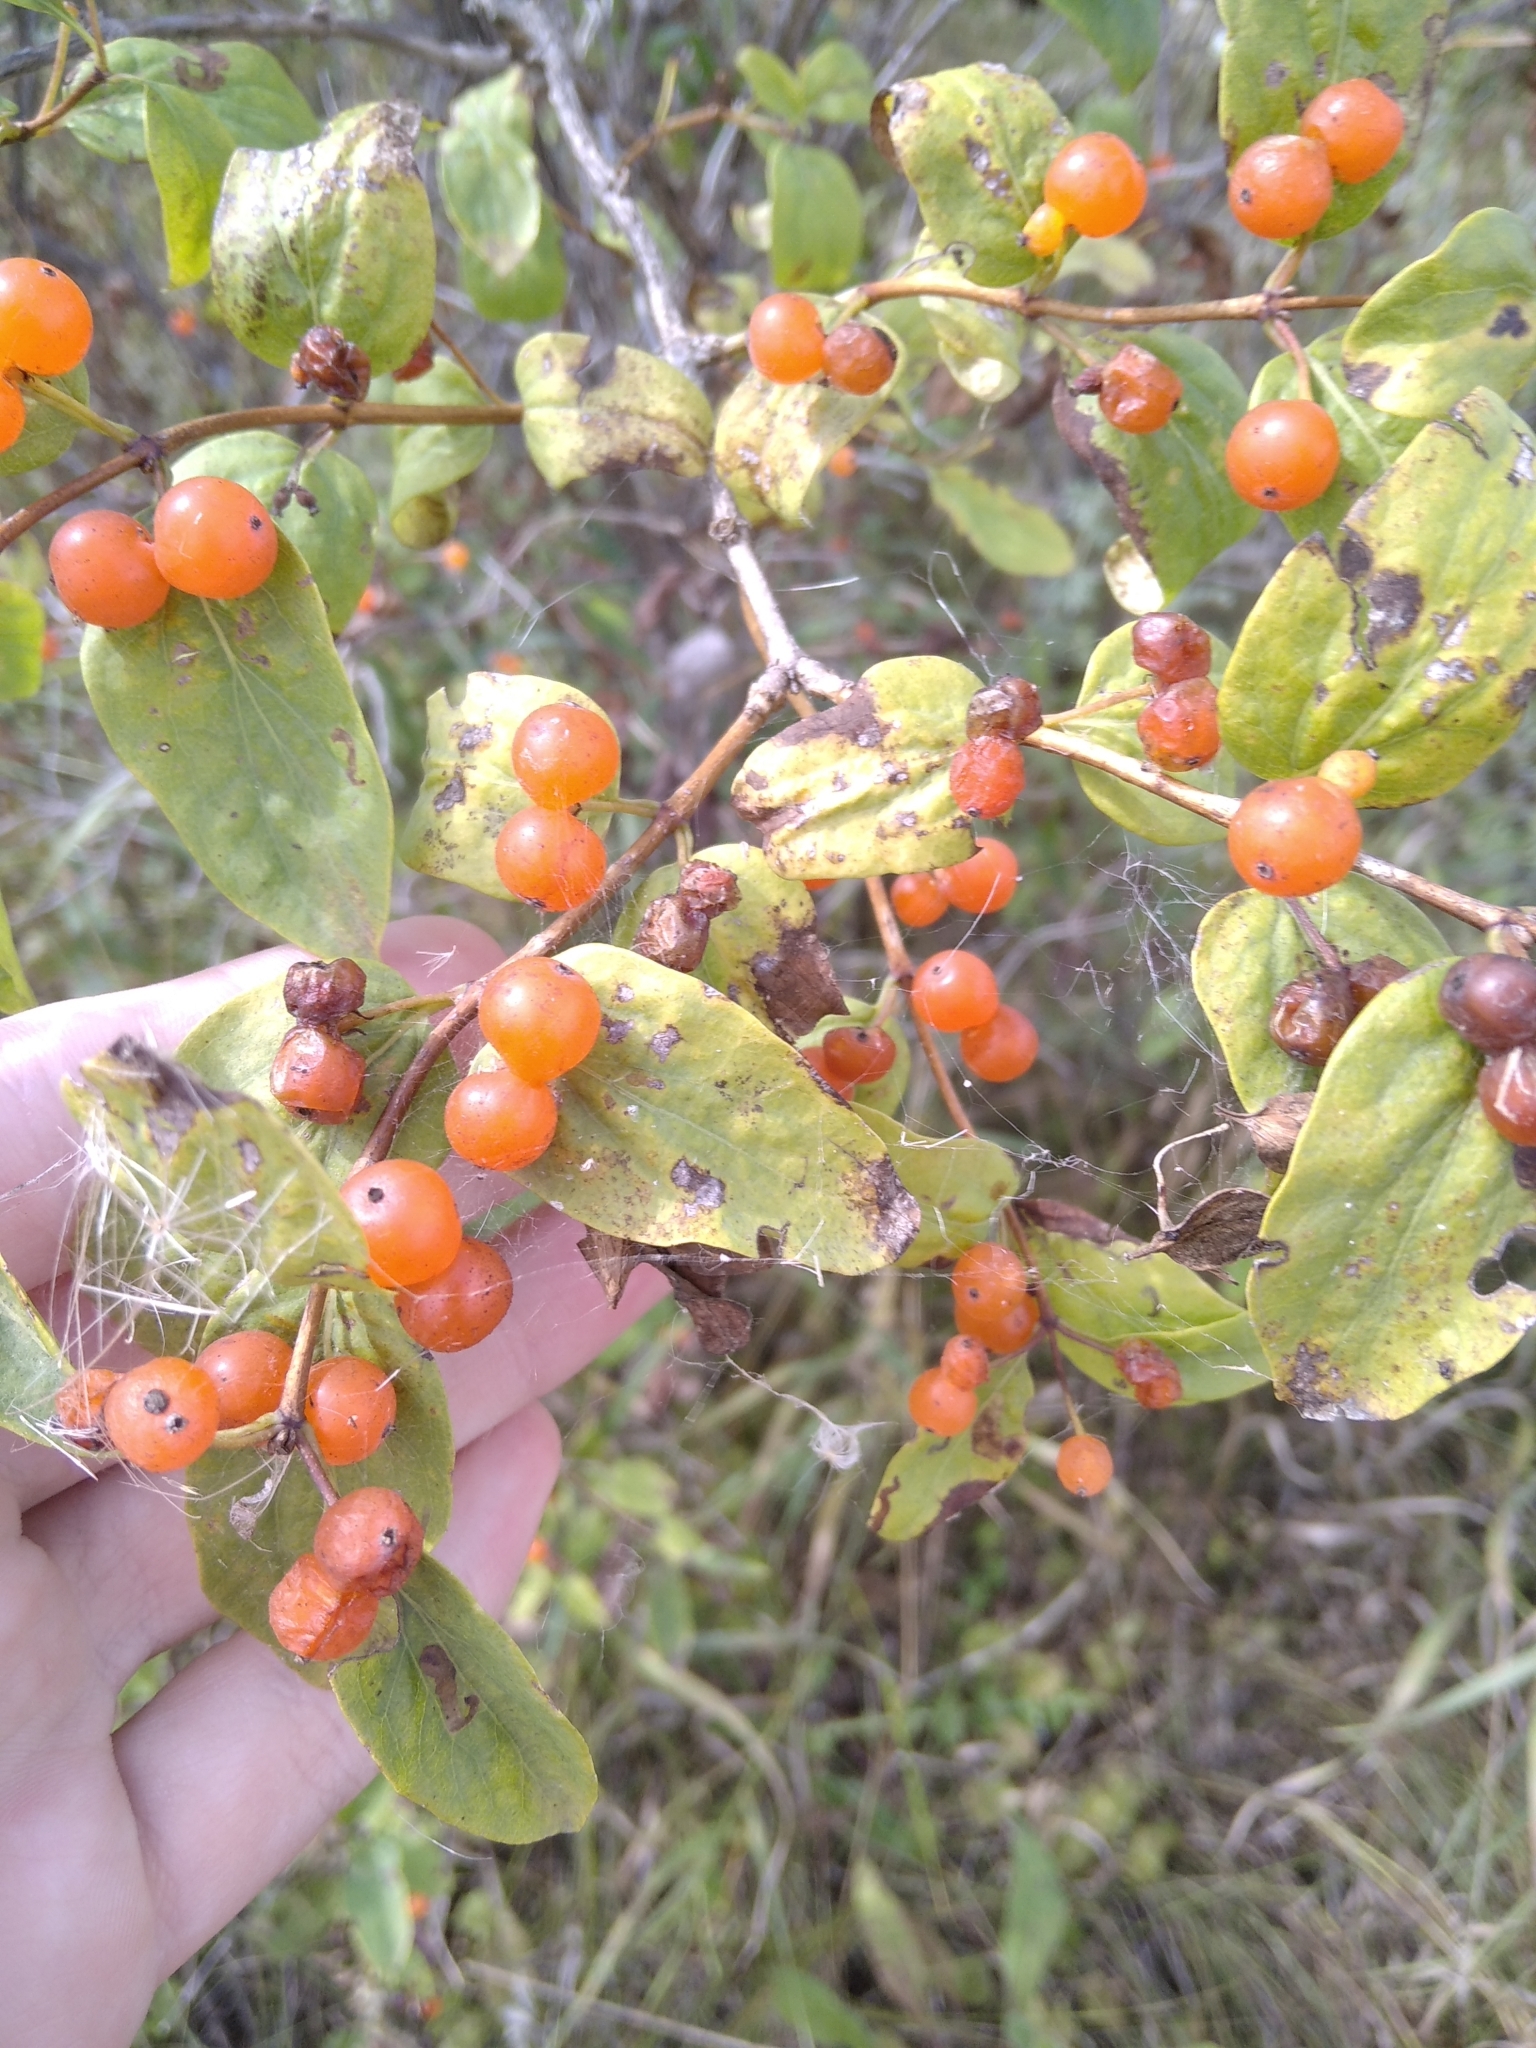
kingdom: Plantae
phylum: Tracheophyta
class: Magnoliopsida
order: Dipsacales
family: Caprifoliaceae
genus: Lonicera
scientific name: Lonicera tatarica
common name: Tatarian honeysuckle
